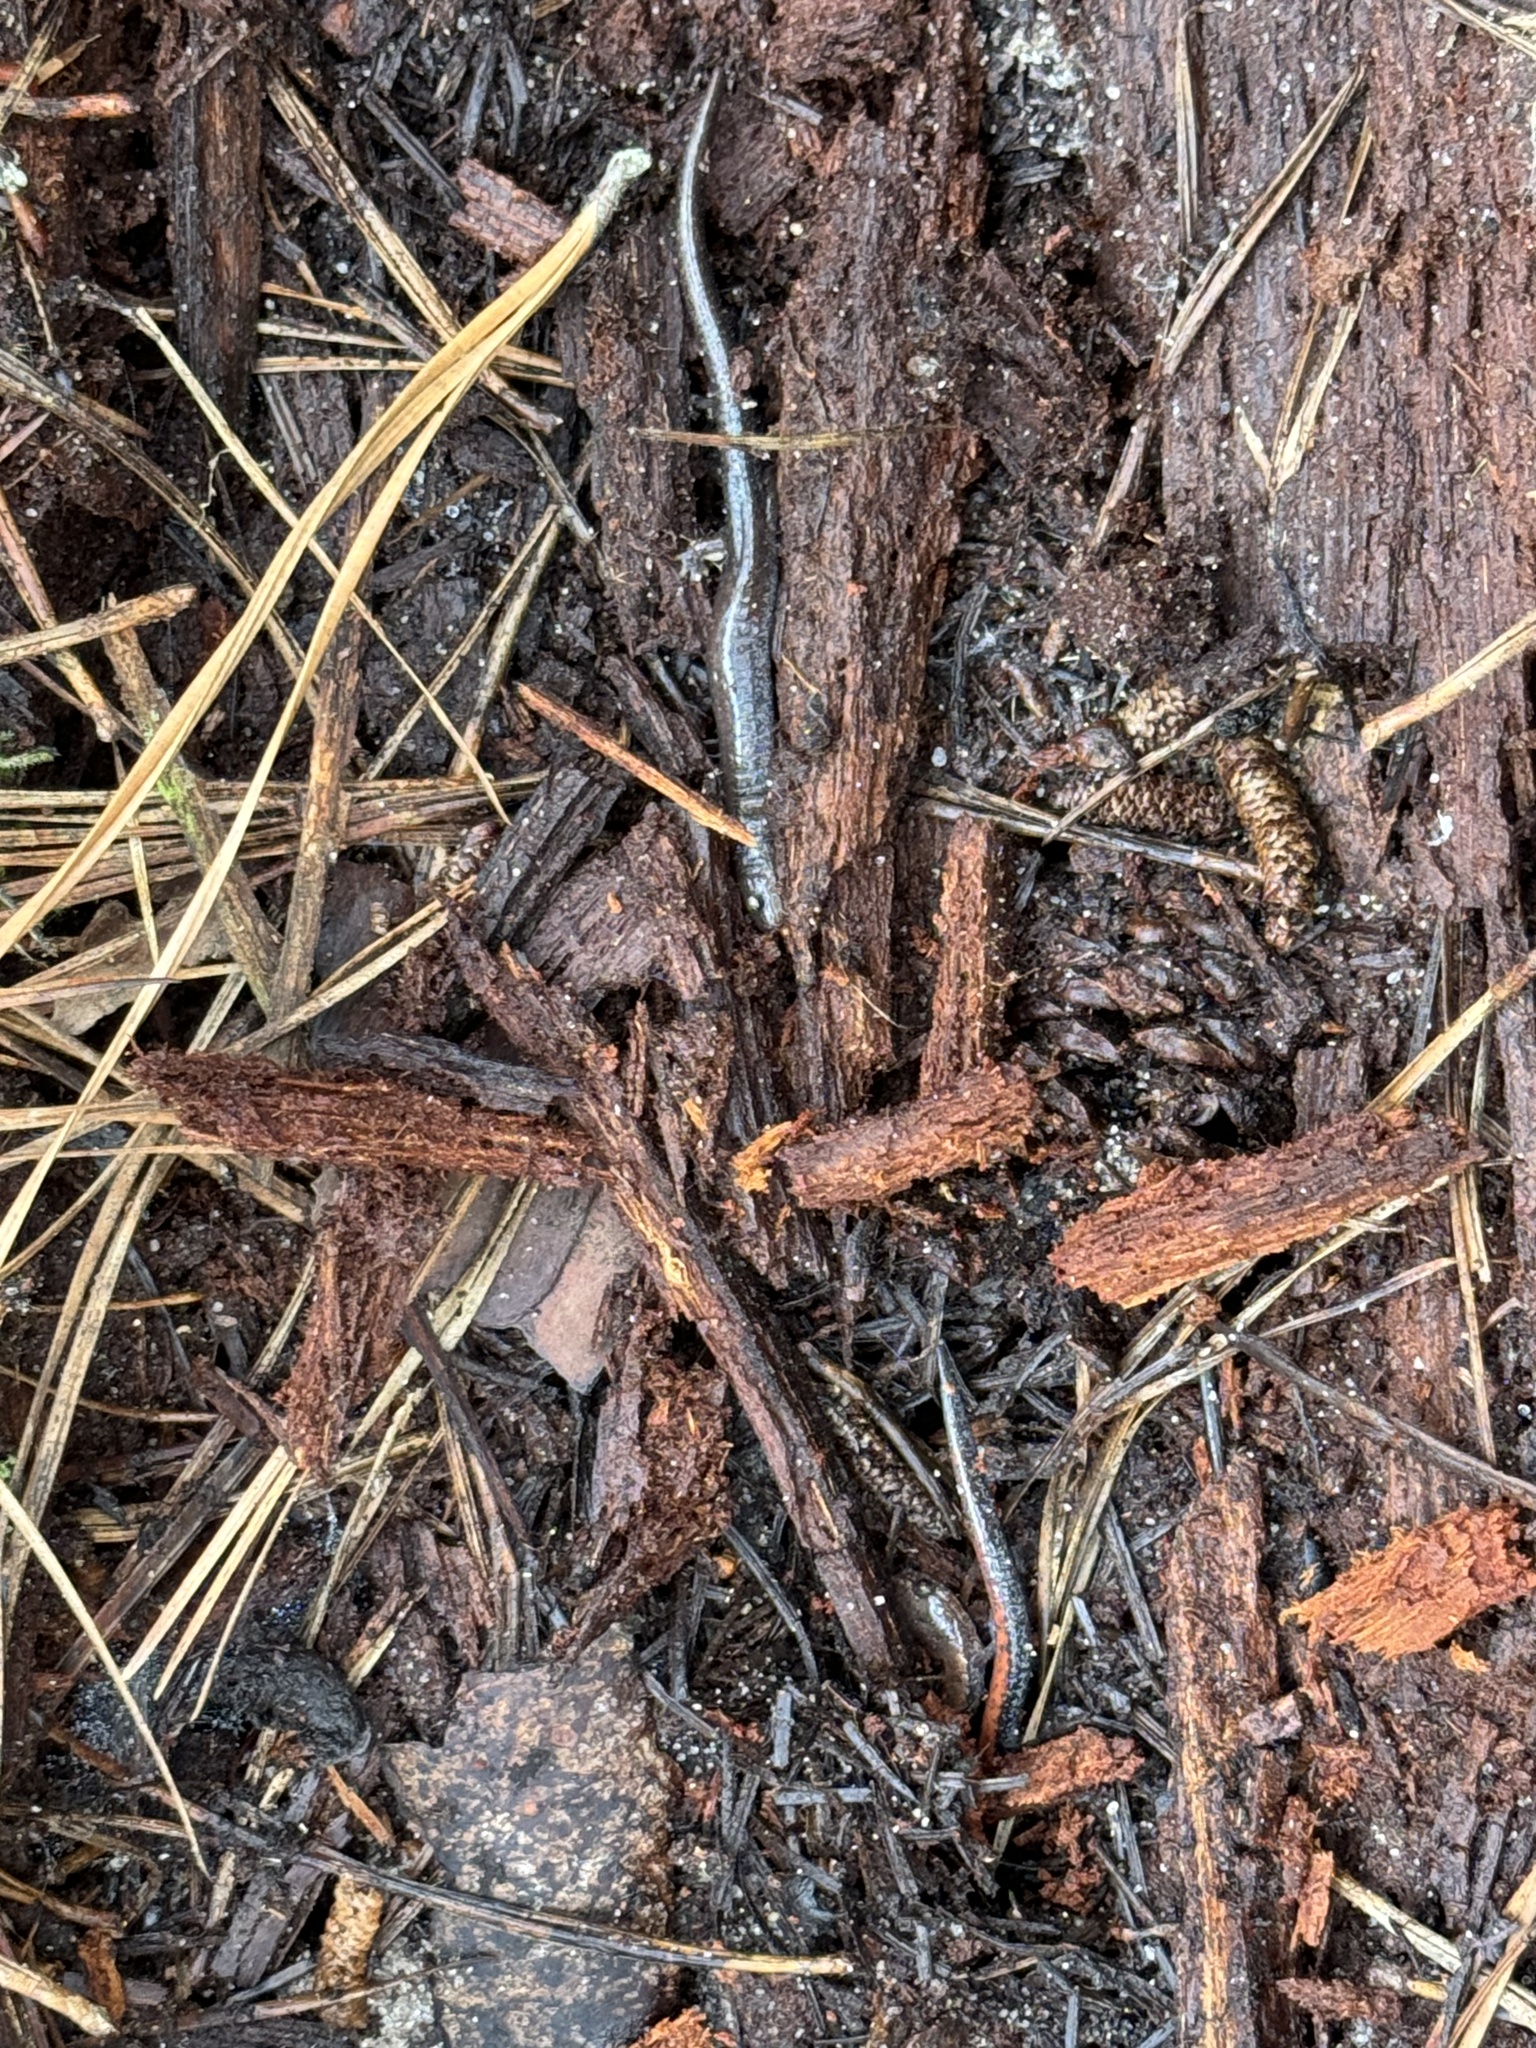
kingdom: Animalia
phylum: Chordata
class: Amphibia
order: Caudata
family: Plethodontidae
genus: Plethodon
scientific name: Plethodon cinereus
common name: Redback salamander
